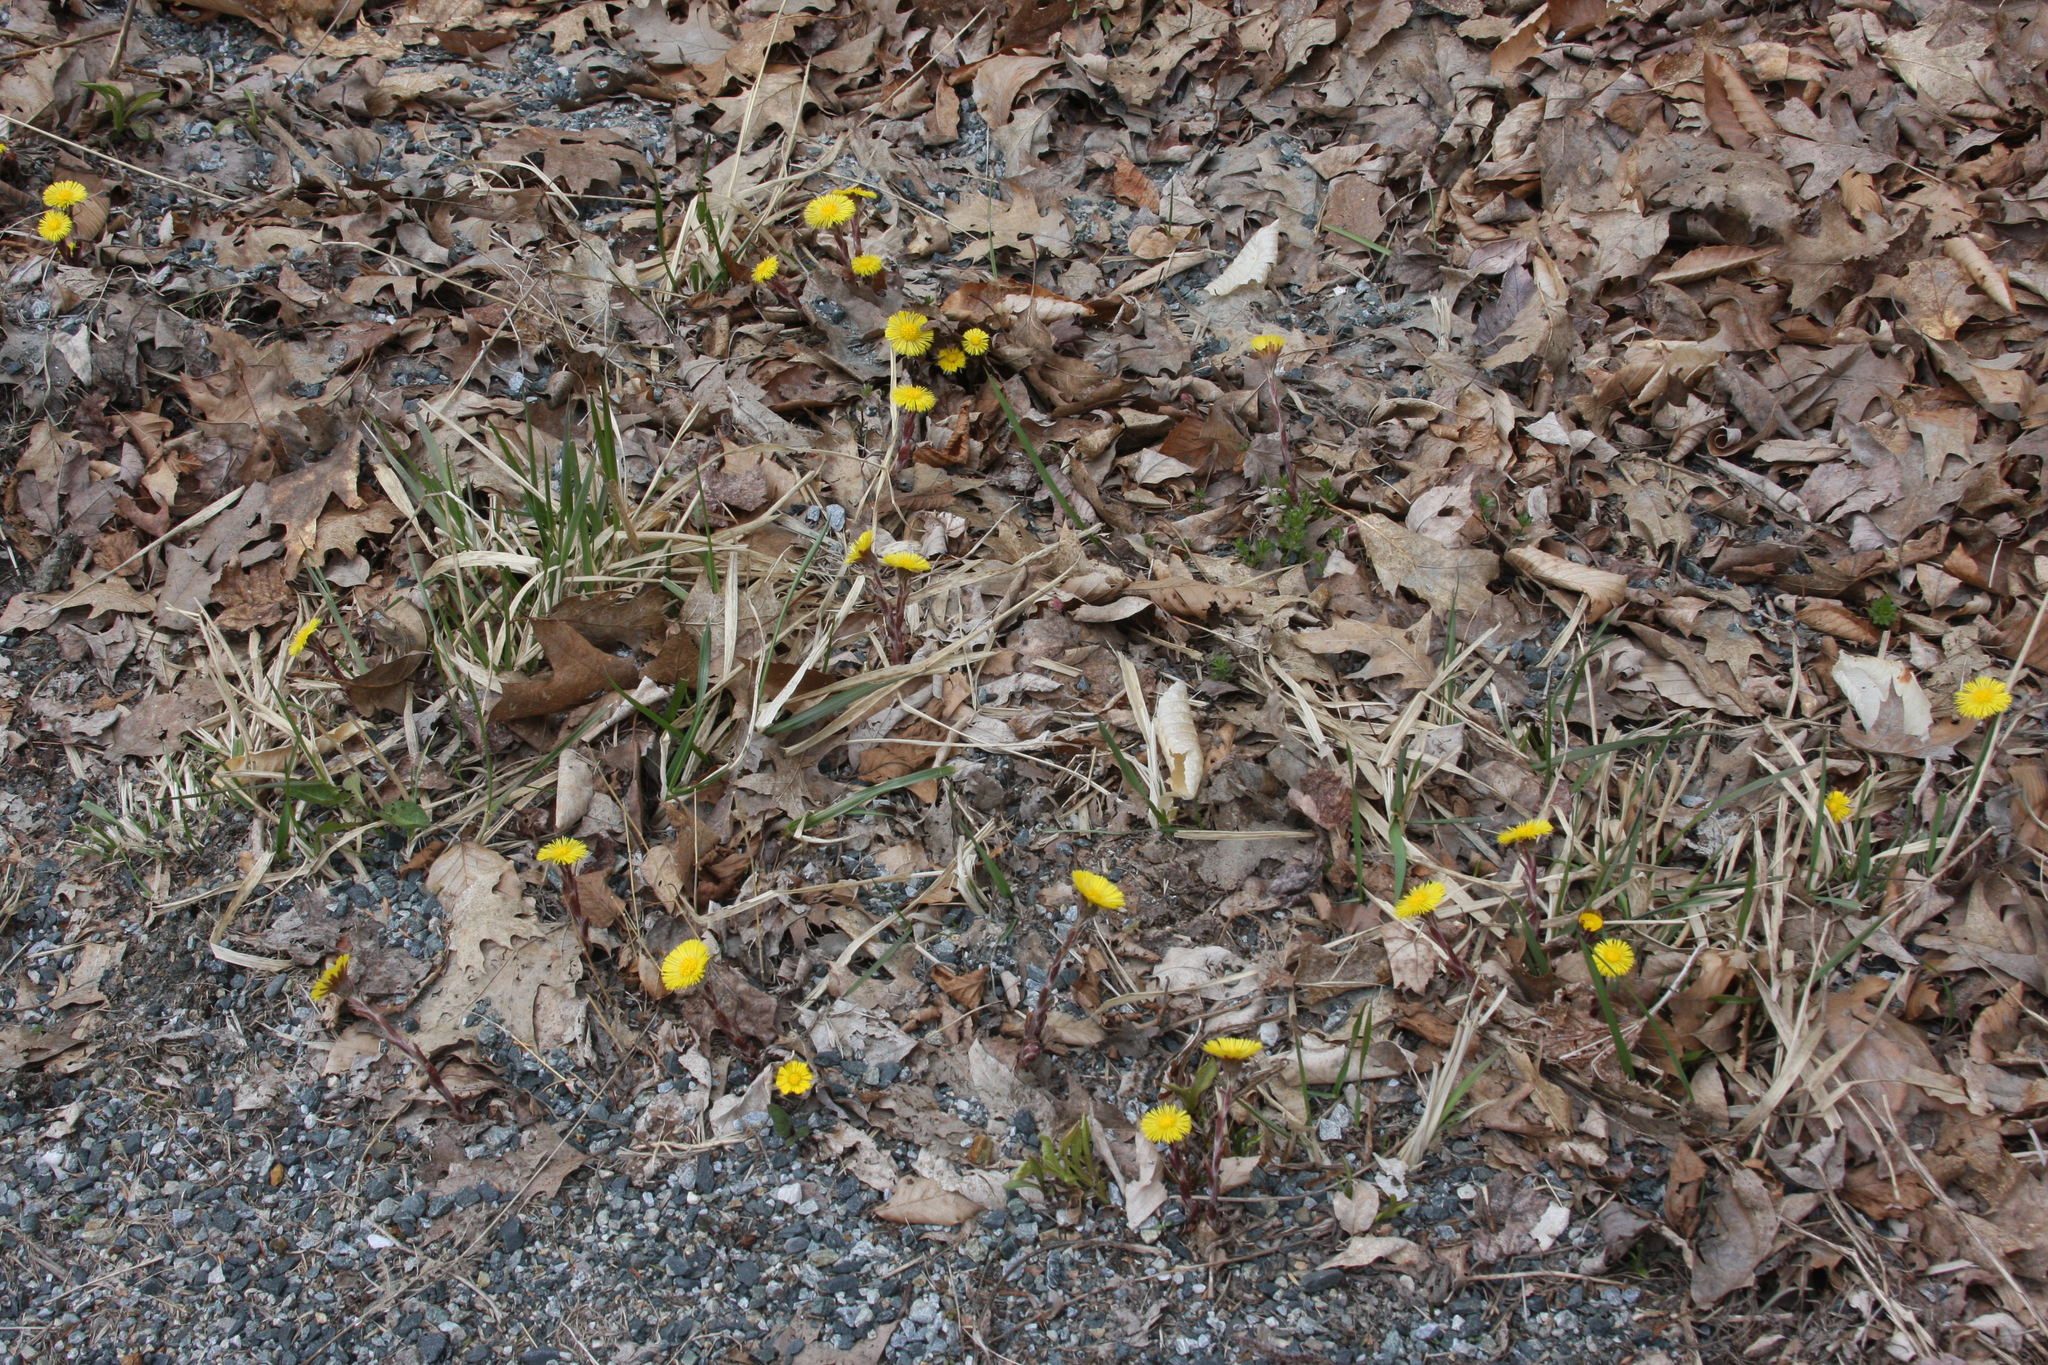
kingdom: Plantae
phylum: Tracheophyta
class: Magnoliopsida
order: Asterales
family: Asteraceae
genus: Tussilago
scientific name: Tussilago farfara
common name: Coltsfoot
